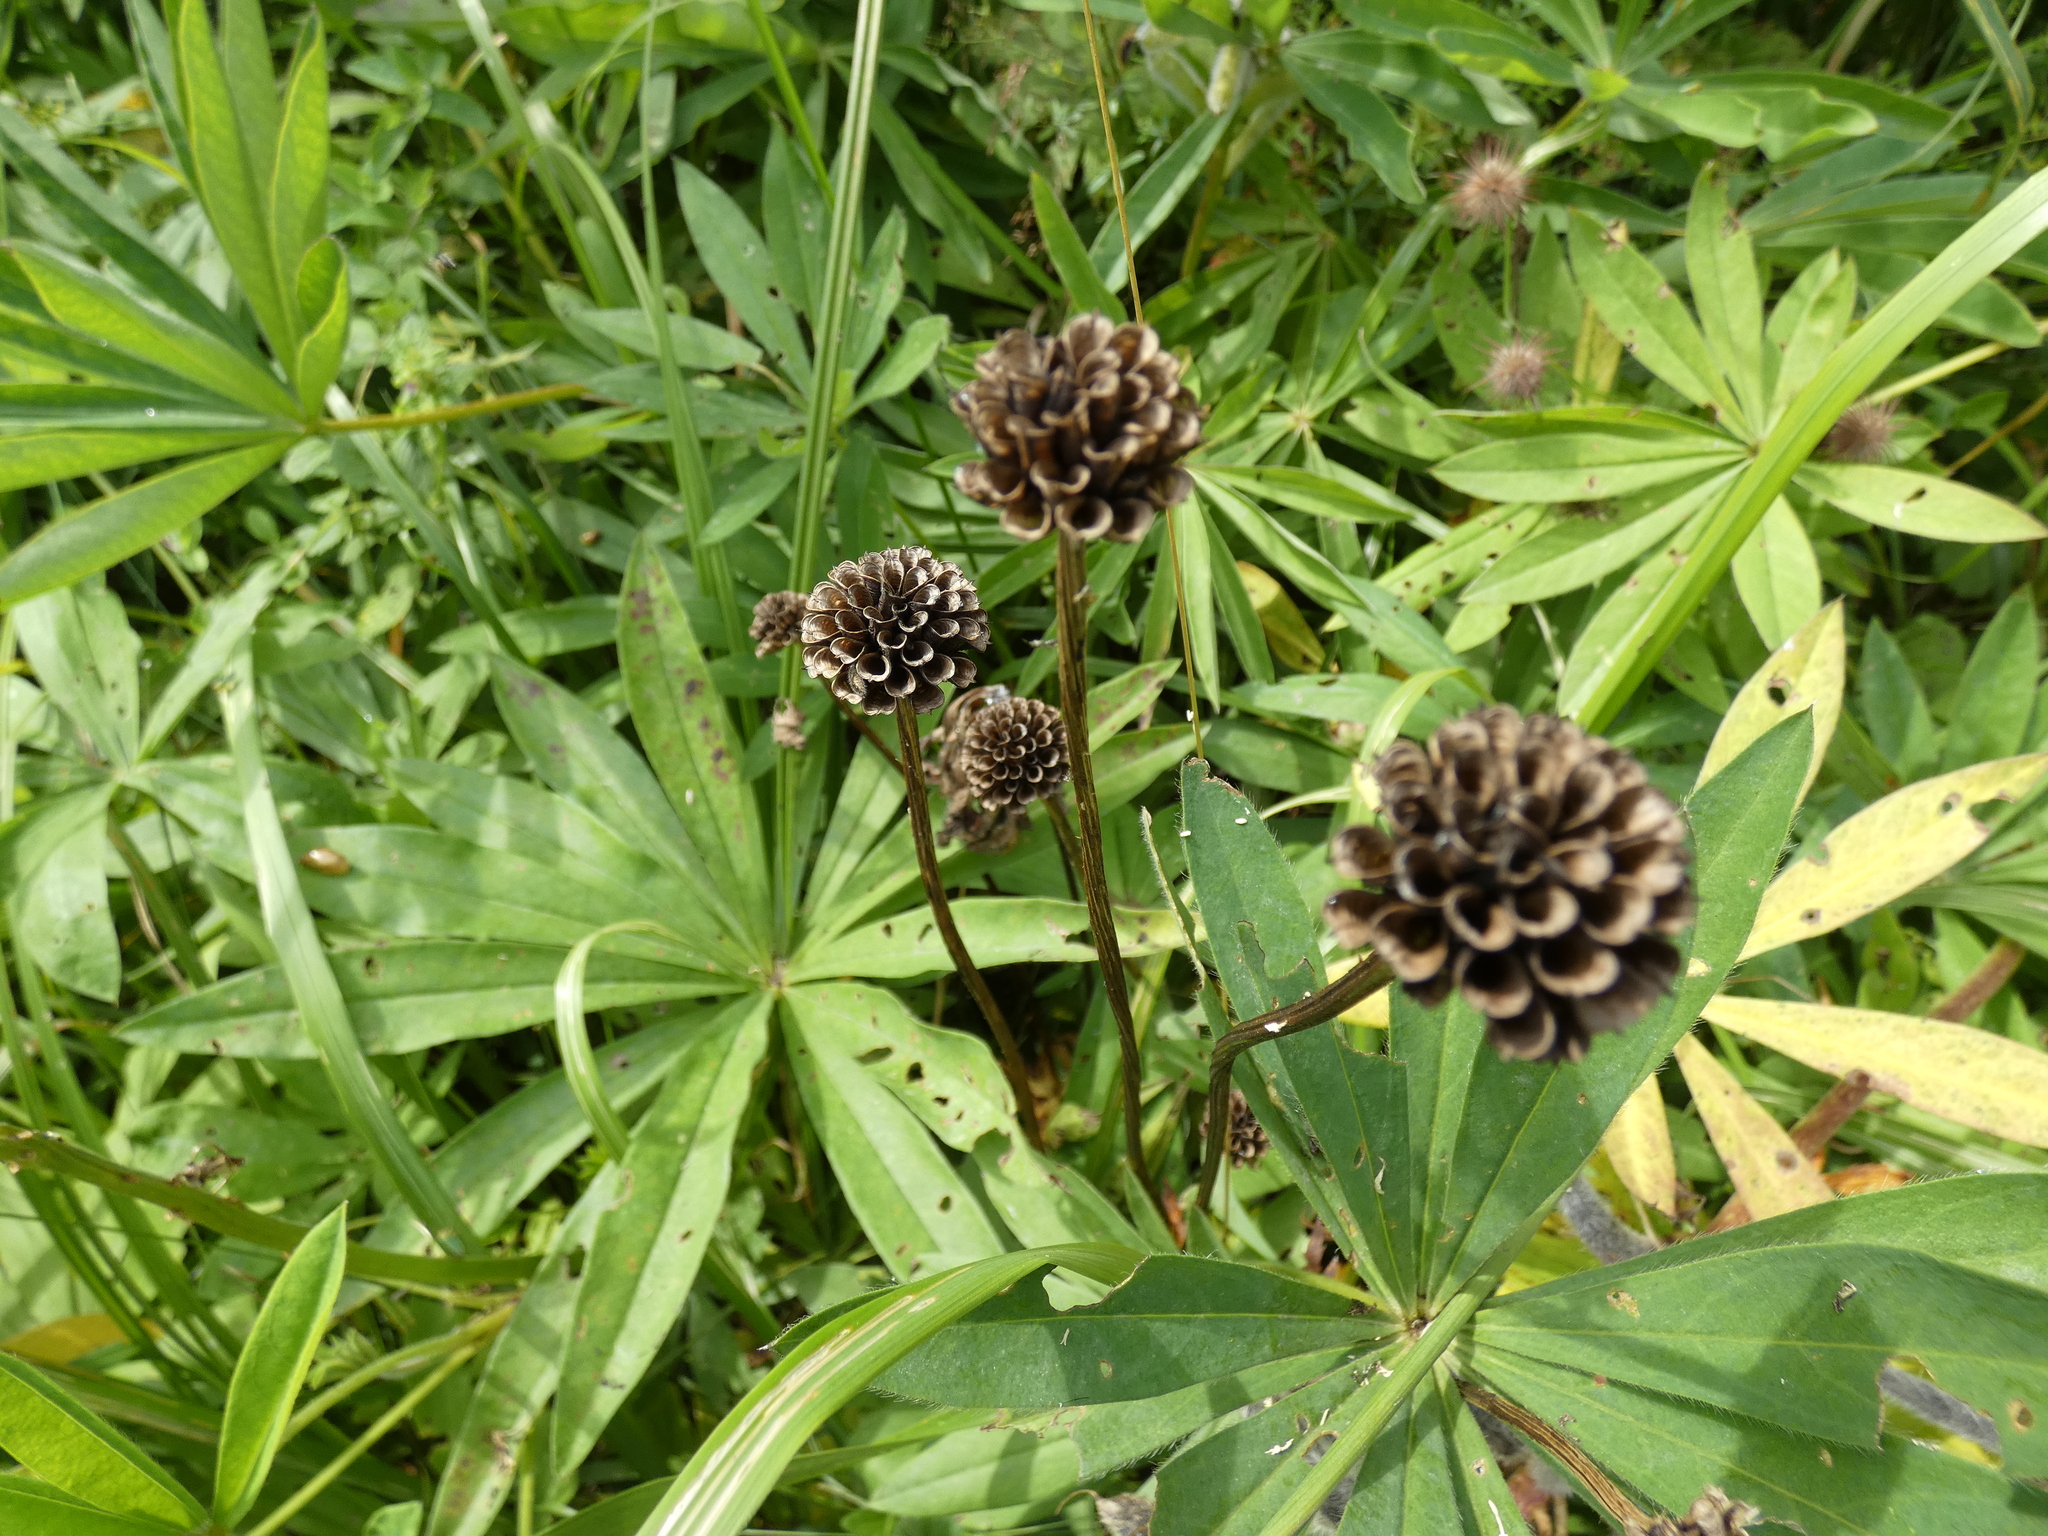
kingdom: Plantae
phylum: Tracheophyta
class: Magnoliopsida
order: Ranunculales
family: Ranunculaceae
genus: Trollius
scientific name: Trollius europaeus
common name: European globeflower
